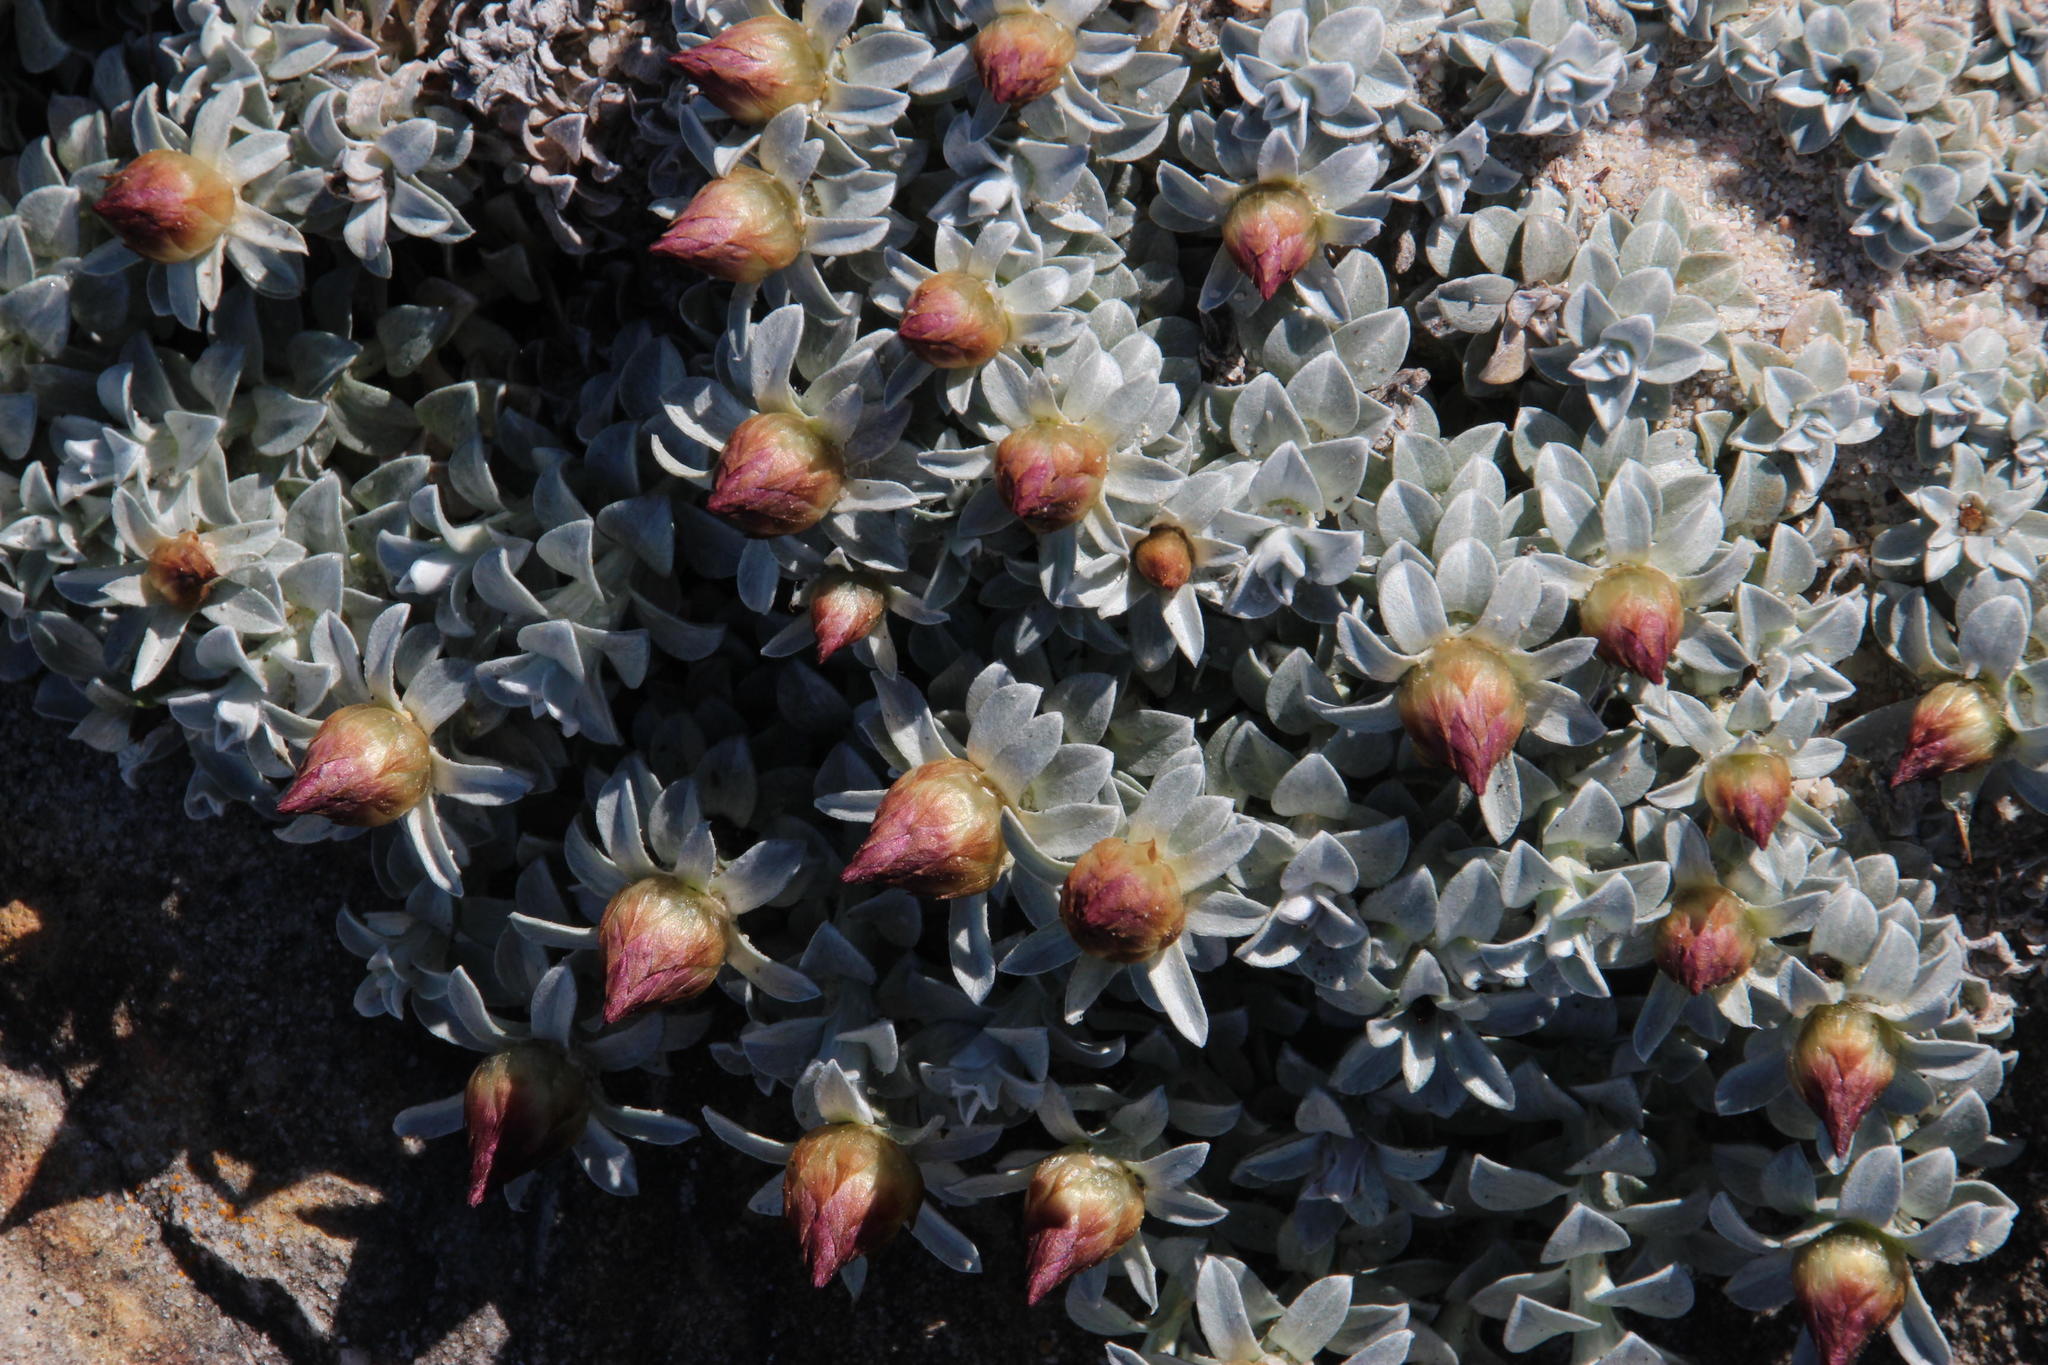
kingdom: Plantae
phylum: Tracheophyta
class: Magnoliopsida
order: Asterales
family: Asteraceae
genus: Helichrysum
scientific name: Helichrysum retortum
